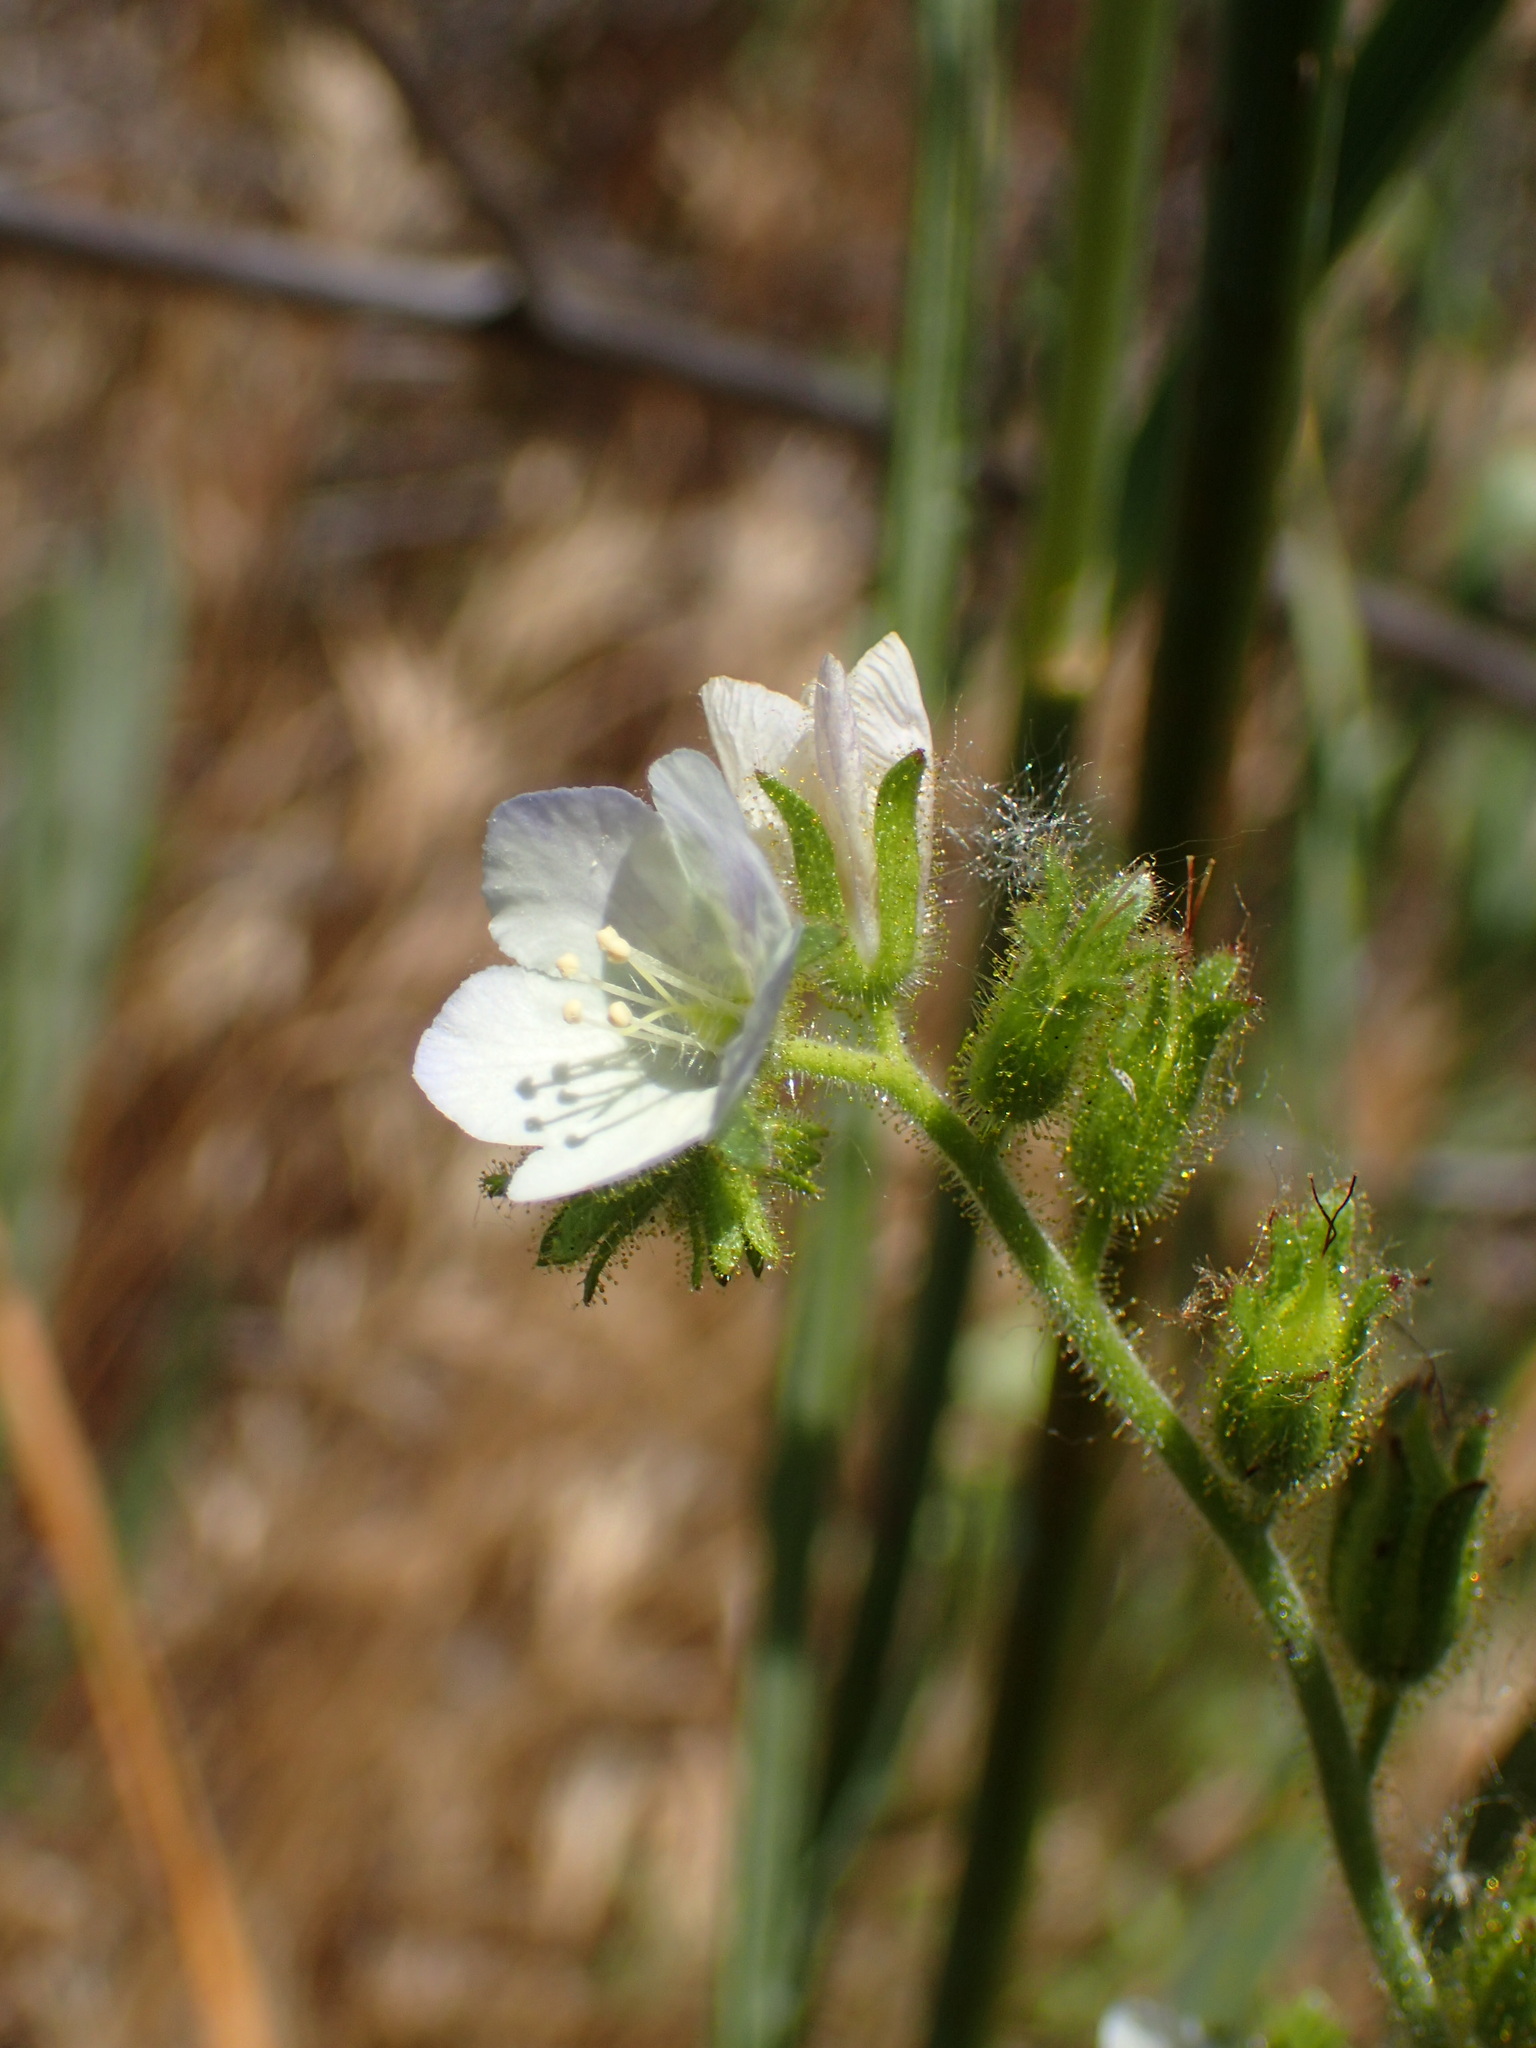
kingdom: Plantae
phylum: Tracheophyta
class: Magnoliopsida
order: Boraginales
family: Hydrophyllaceae
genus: Phacelia
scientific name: Phacelia viscida
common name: Sticky phacelia
